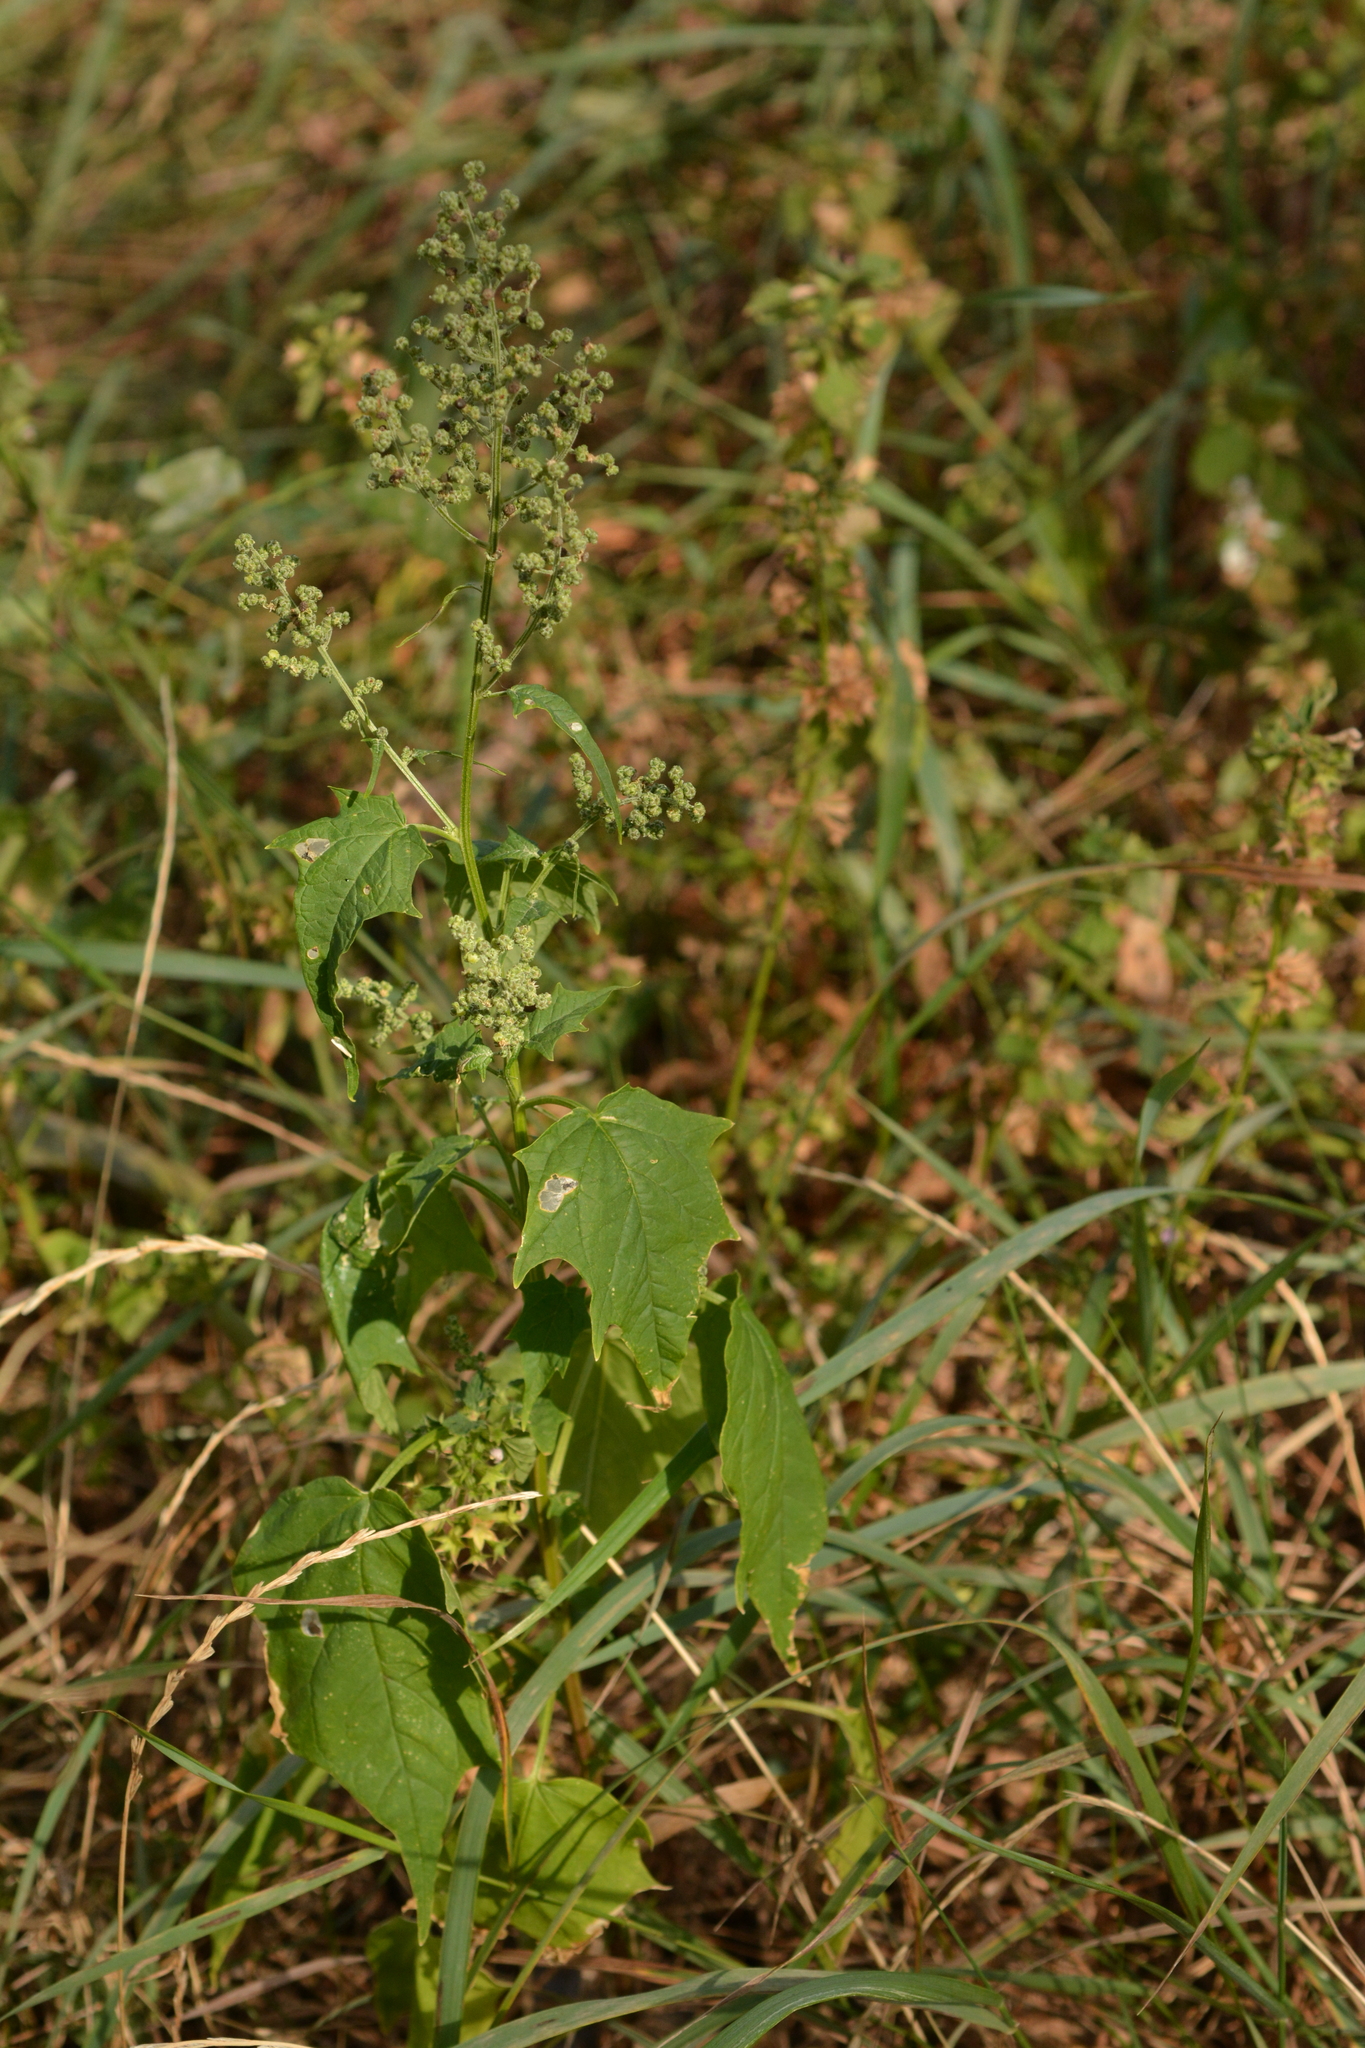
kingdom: Plantae
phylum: Tracheophyta
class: Magnoliopsida
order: Caryophyllales
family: Amaranthaceae
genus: Chenopodiastrum
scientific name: Chenopodiastrum hybridum
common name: Mapleleaf goosefoot
